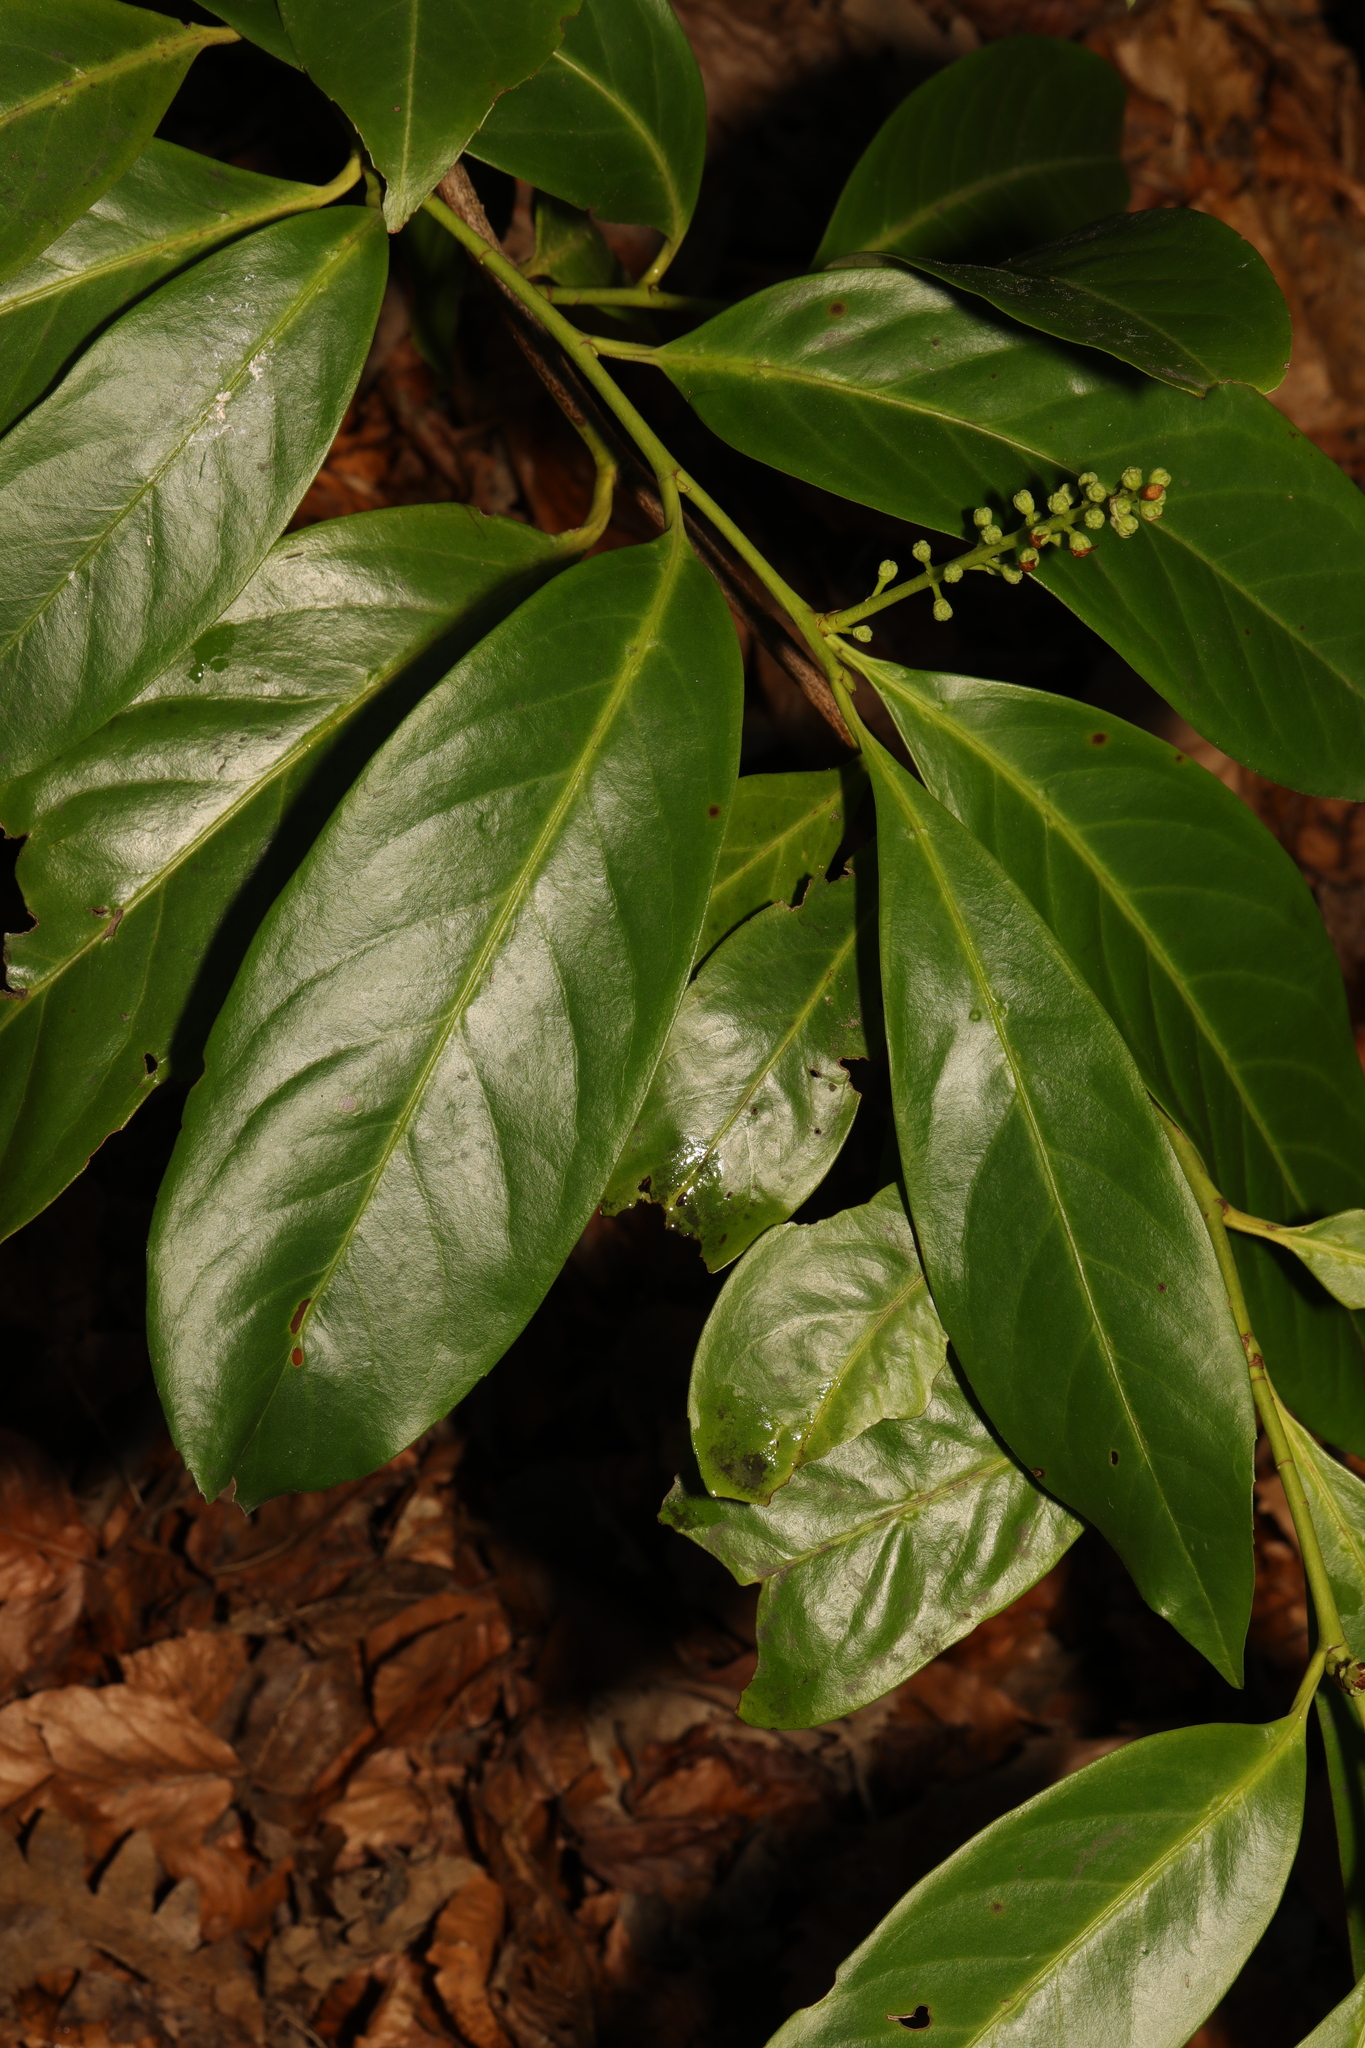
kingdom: Plantae
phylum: Tracheophyta
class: Magnoliopsida
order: Rosales
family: Rosaceae
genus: Prunus
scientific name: Prunus laurocerasus
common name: Cherry laurel
